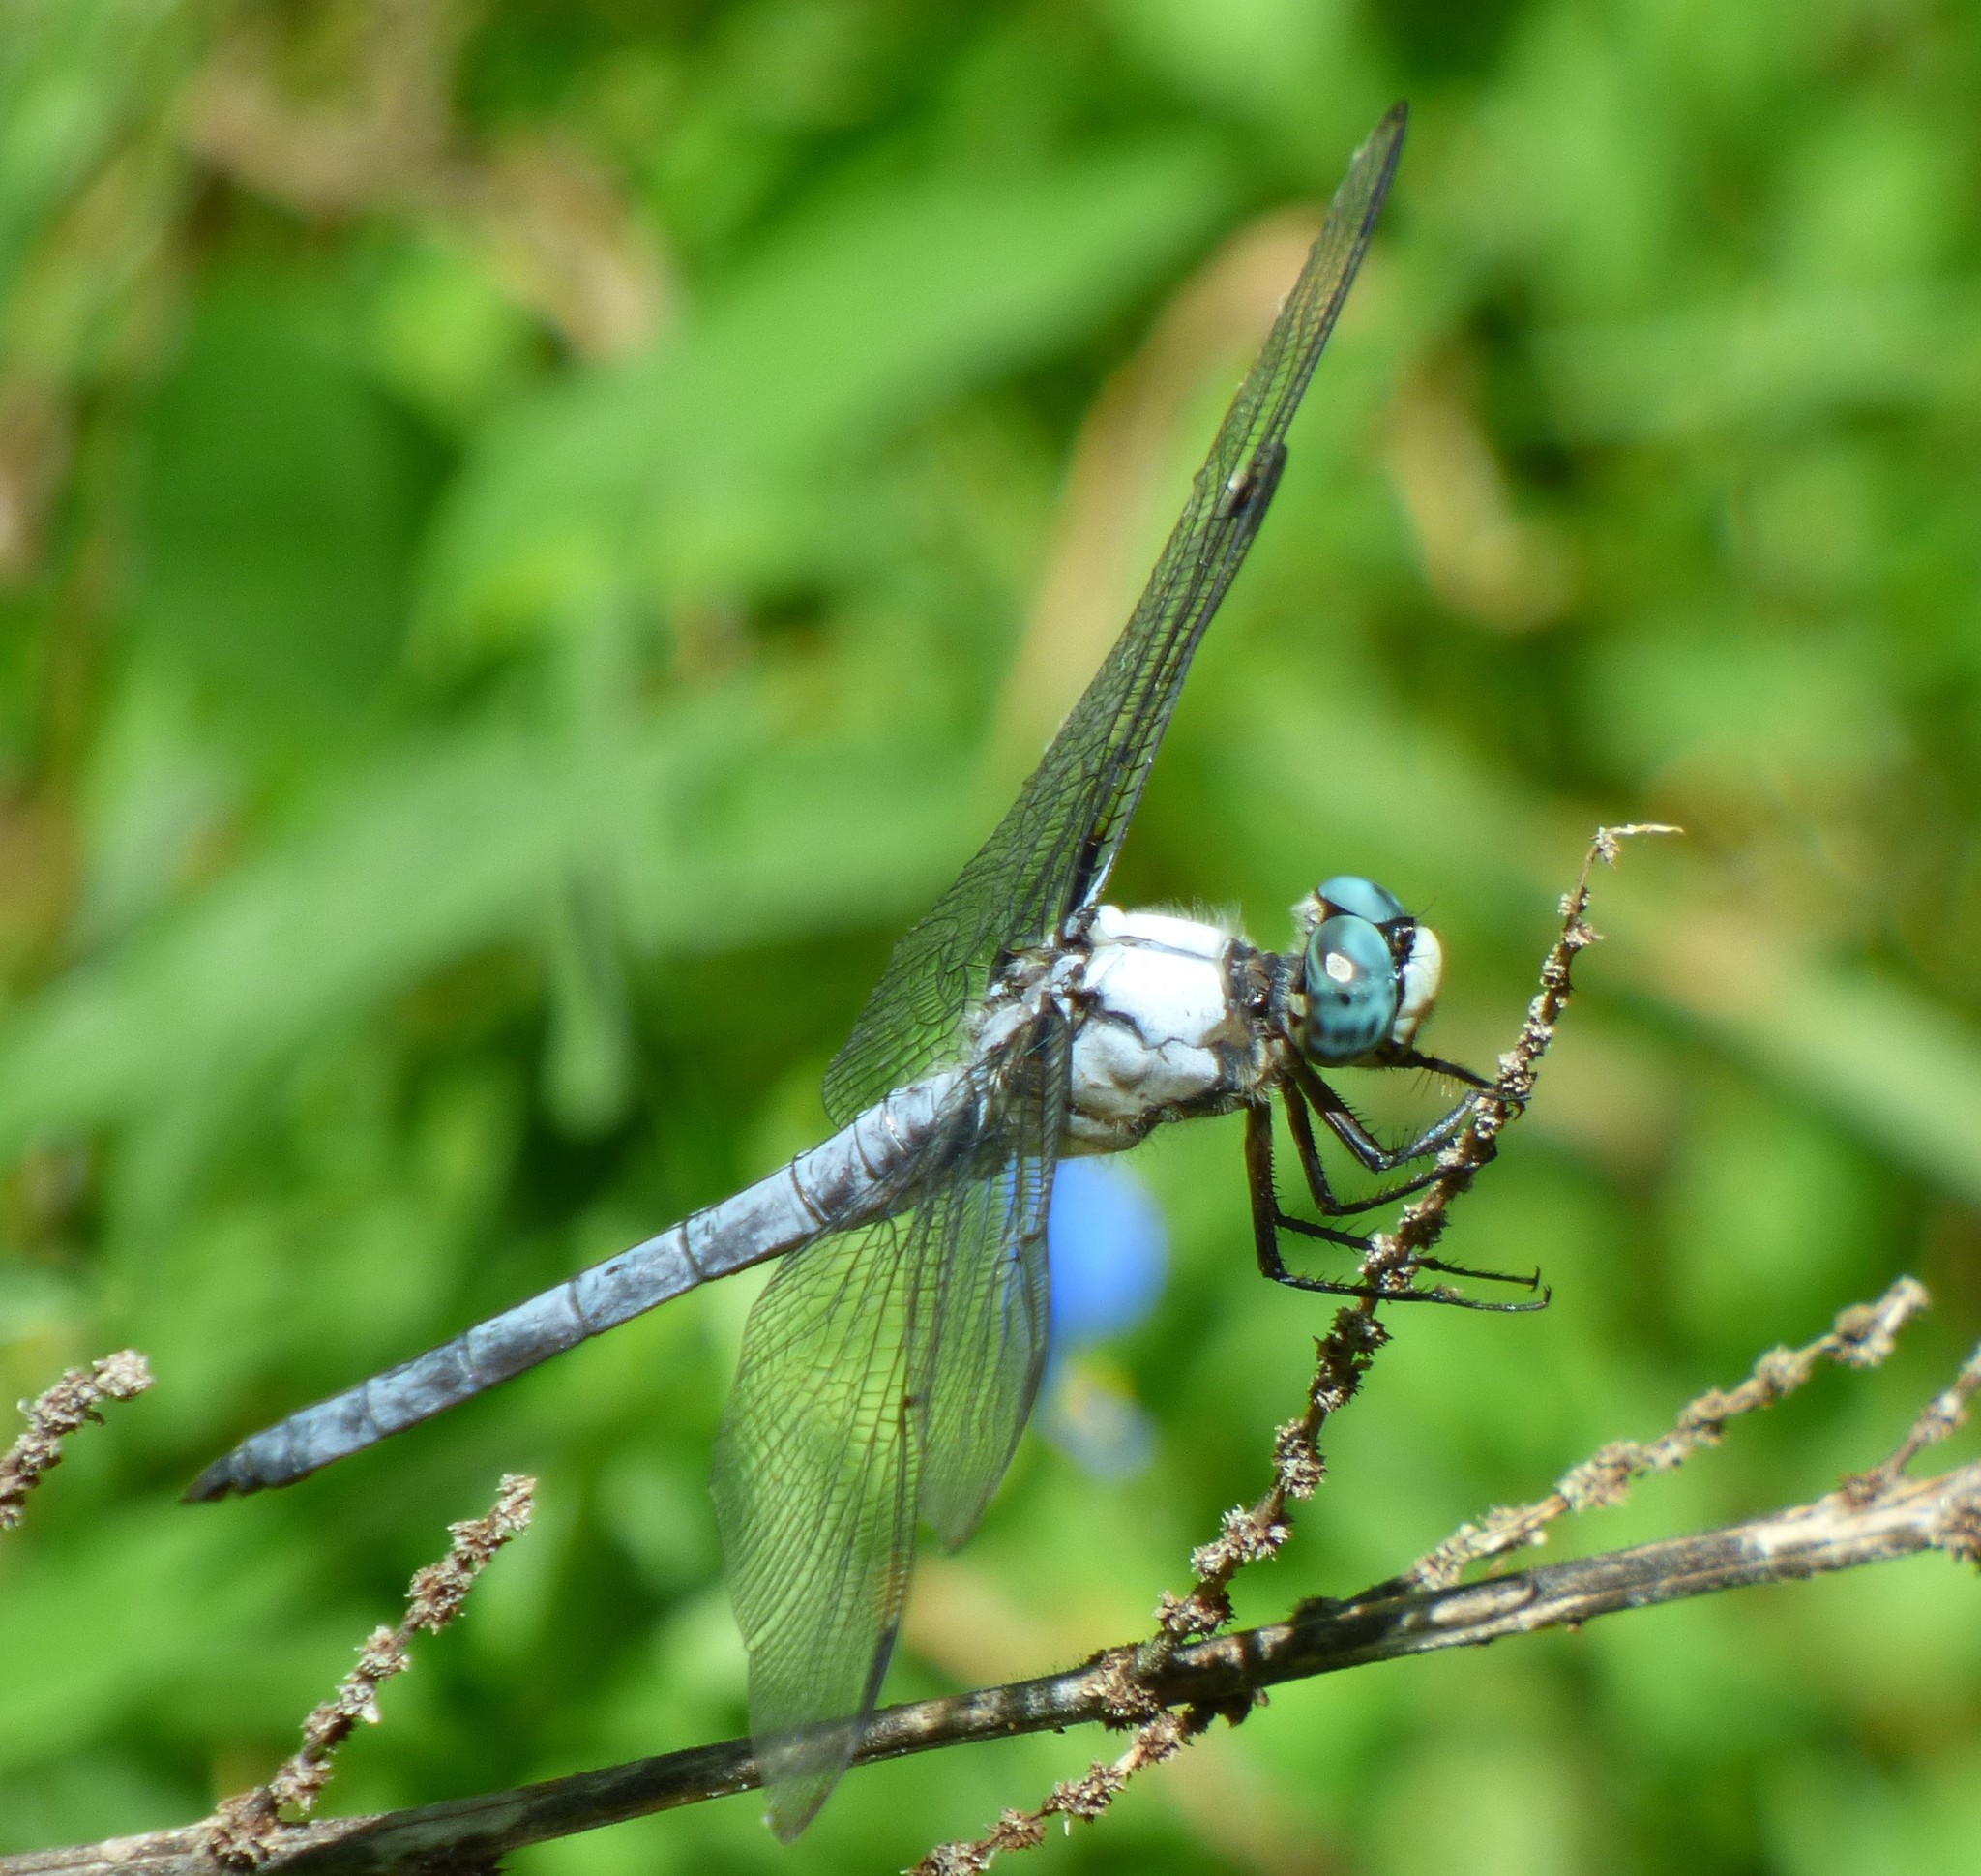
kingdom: Animalia
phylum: Arthropoda
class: Insecta
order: Odonata
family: Libellulidae
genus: Libellula
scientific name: Libellula vibrans
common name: Great blue skimmer
